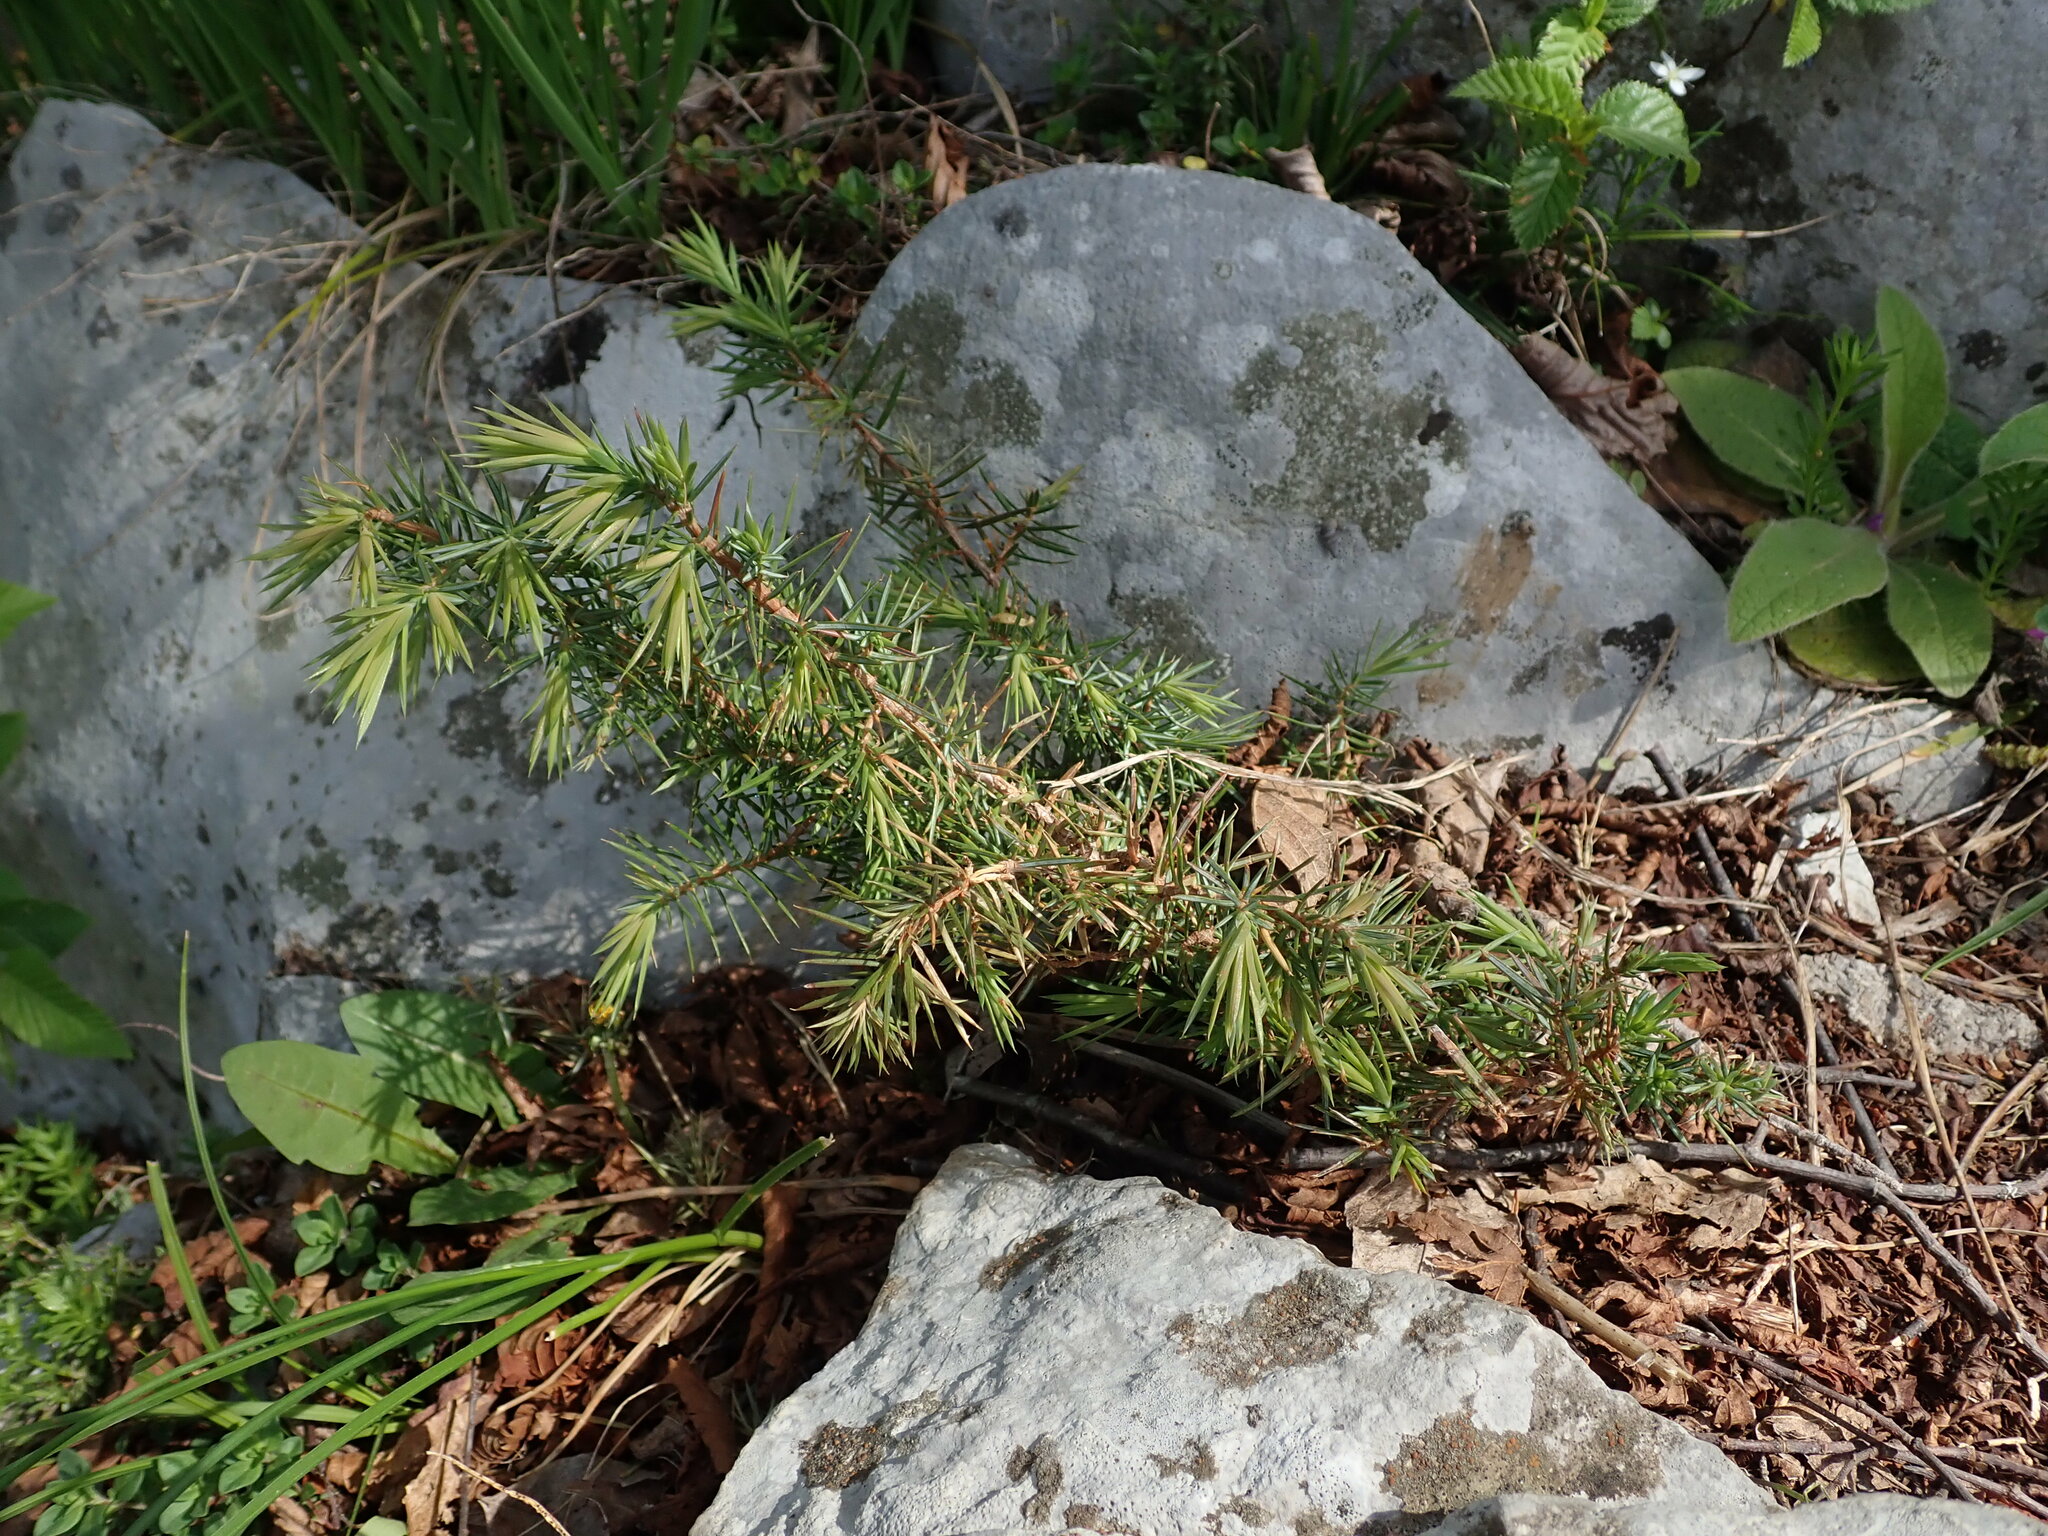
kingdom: Plantae
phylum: Tracheophyta
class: Pinopsida
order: Pinales
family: Cupressaceae
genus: Juniperus
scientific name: Juniperus communis
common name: Common juniper
